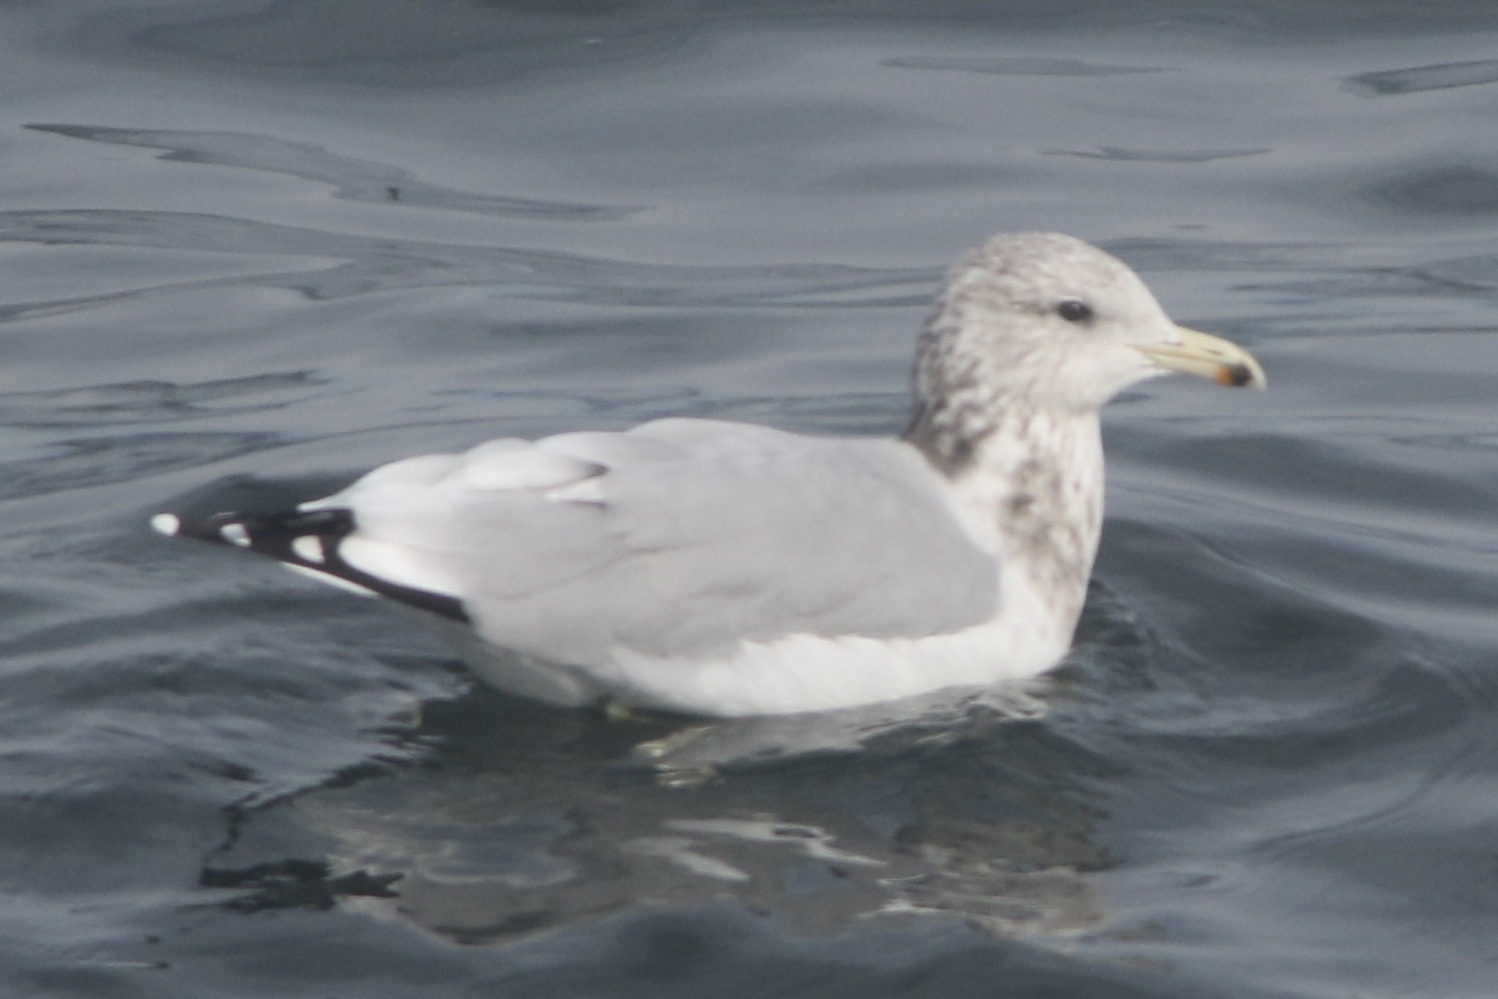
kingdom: Animalia
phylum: Chordata
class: Aves
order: Charadriiformes
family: Laridae
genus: Larus
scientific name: Larus californicus
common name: California gull
